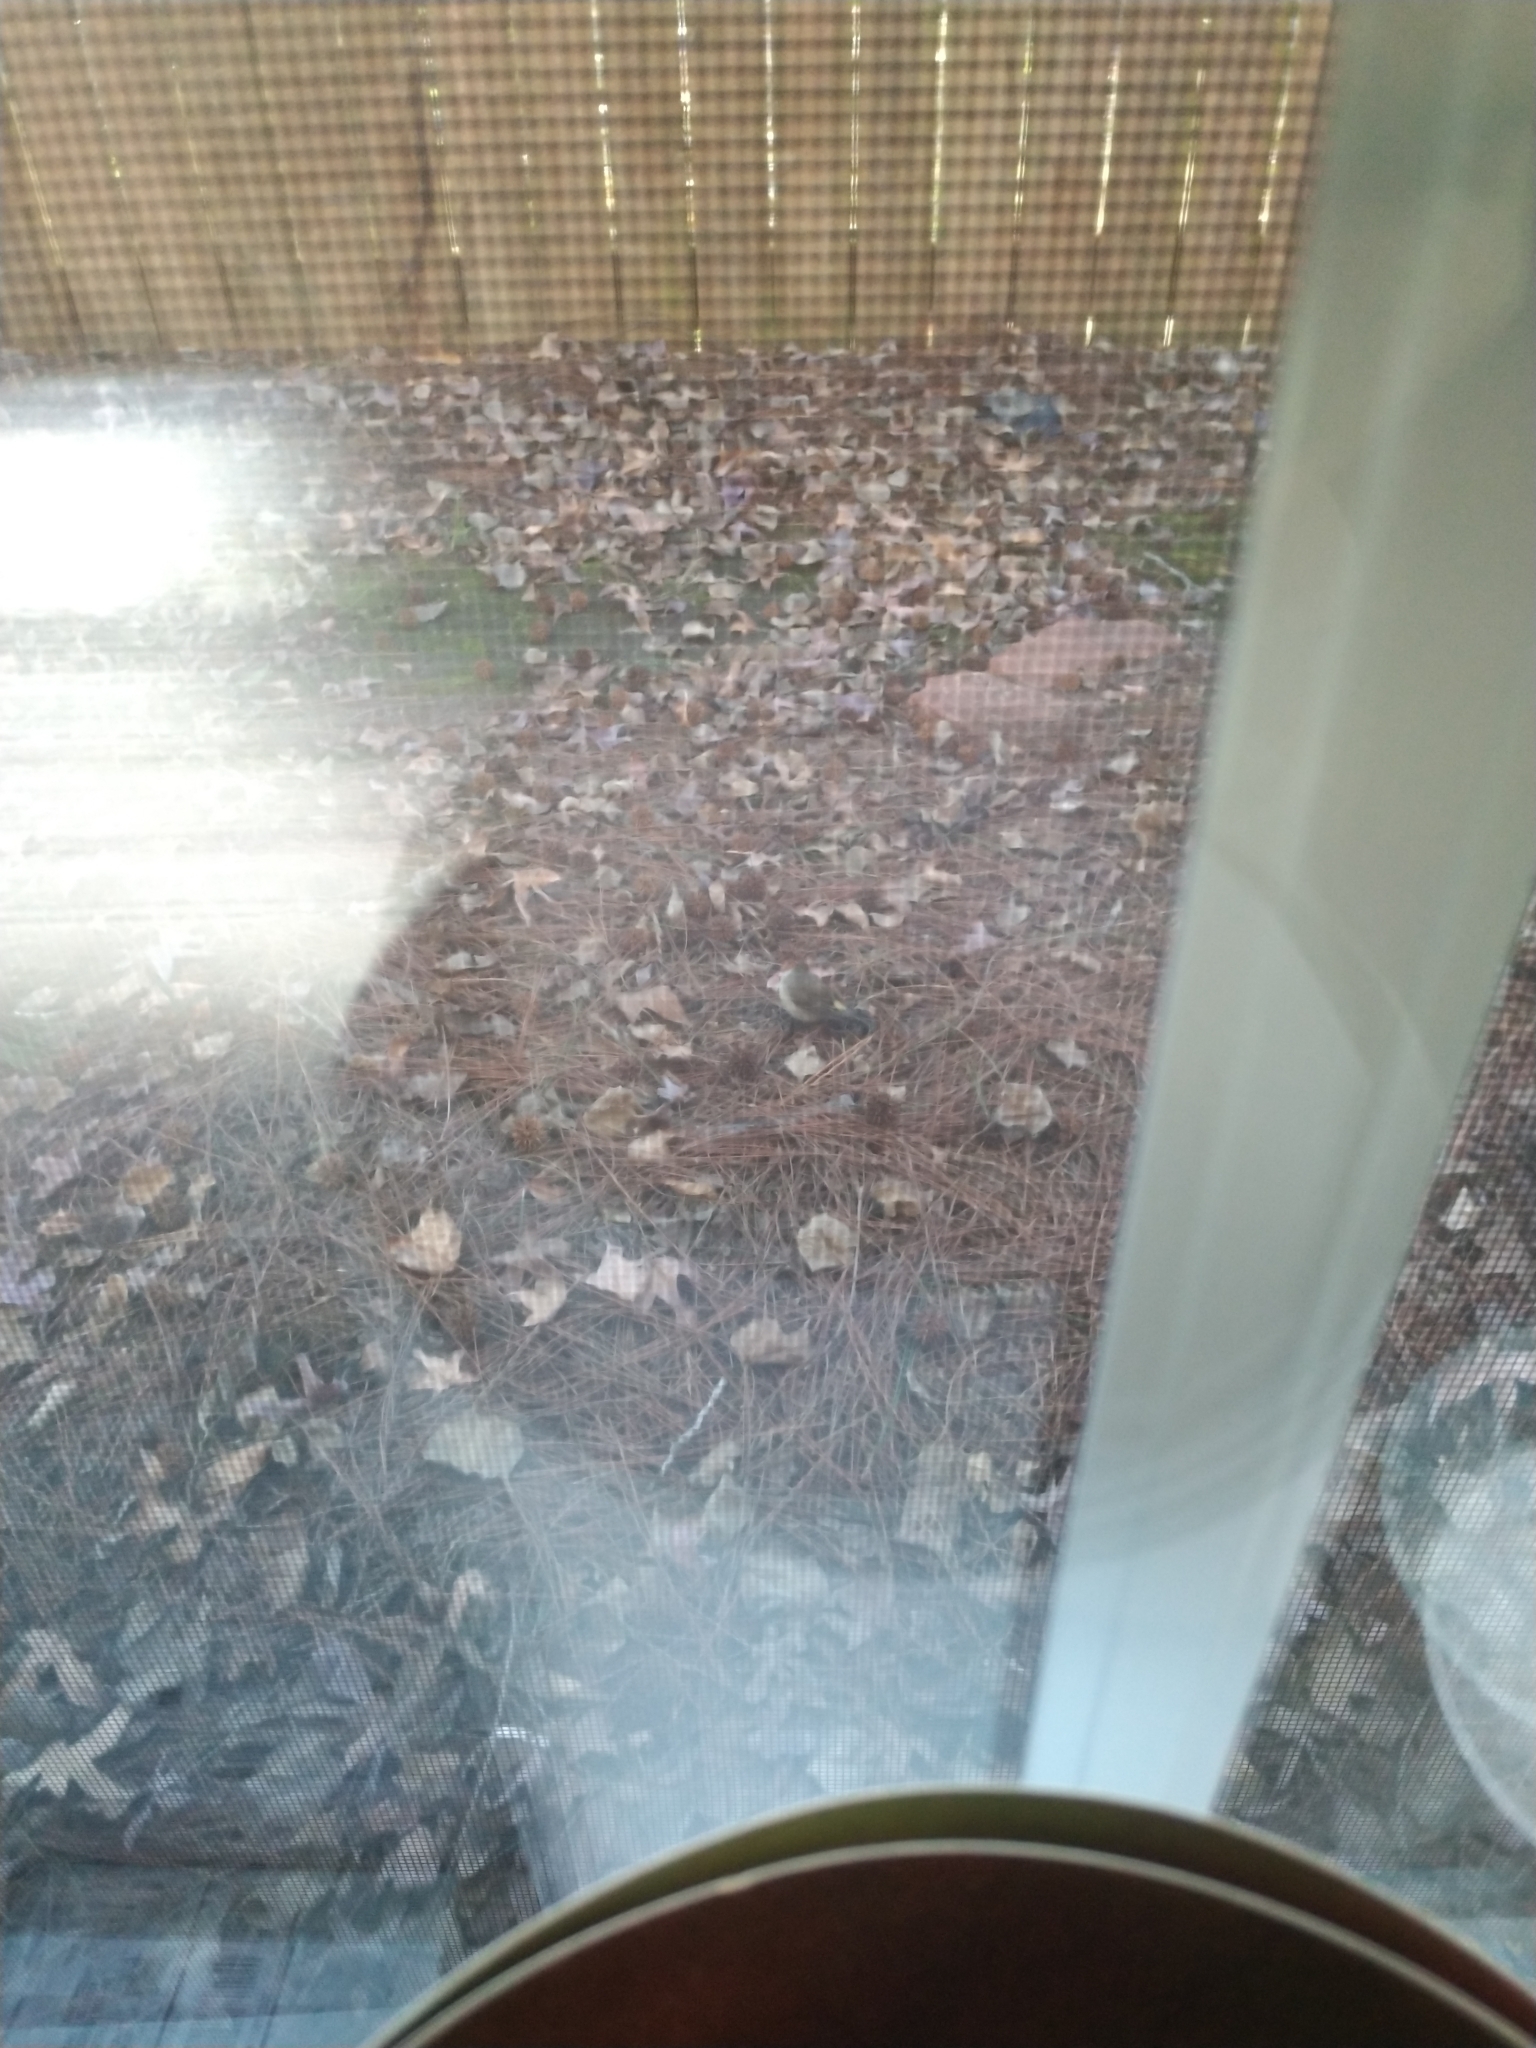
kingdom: Animalia
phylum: Chordata
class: Aves
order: Passeriformes
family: Parulidae
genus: Setophaga
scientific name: Setophaga coronata
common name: Myrtle warbler
